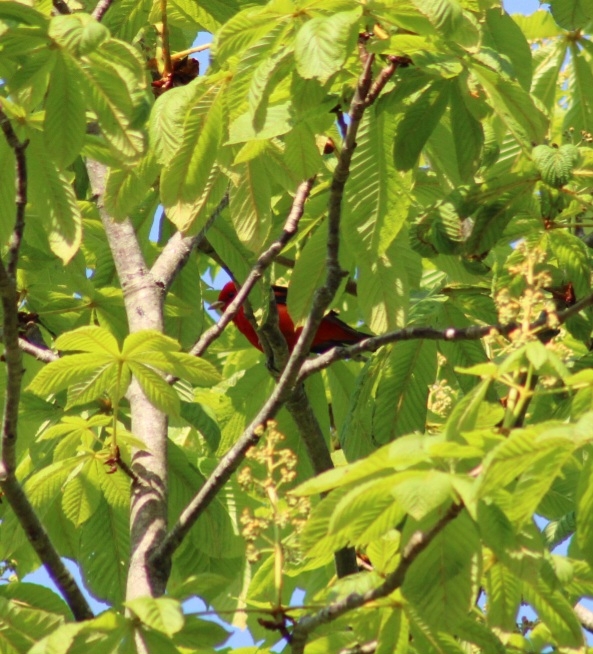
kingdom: Animalia
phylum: Chordata
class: Aves
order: Passeriformes
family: Cardinalidae
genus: Piranga
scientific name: Piranga olivacea
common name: Scarlet tanager
